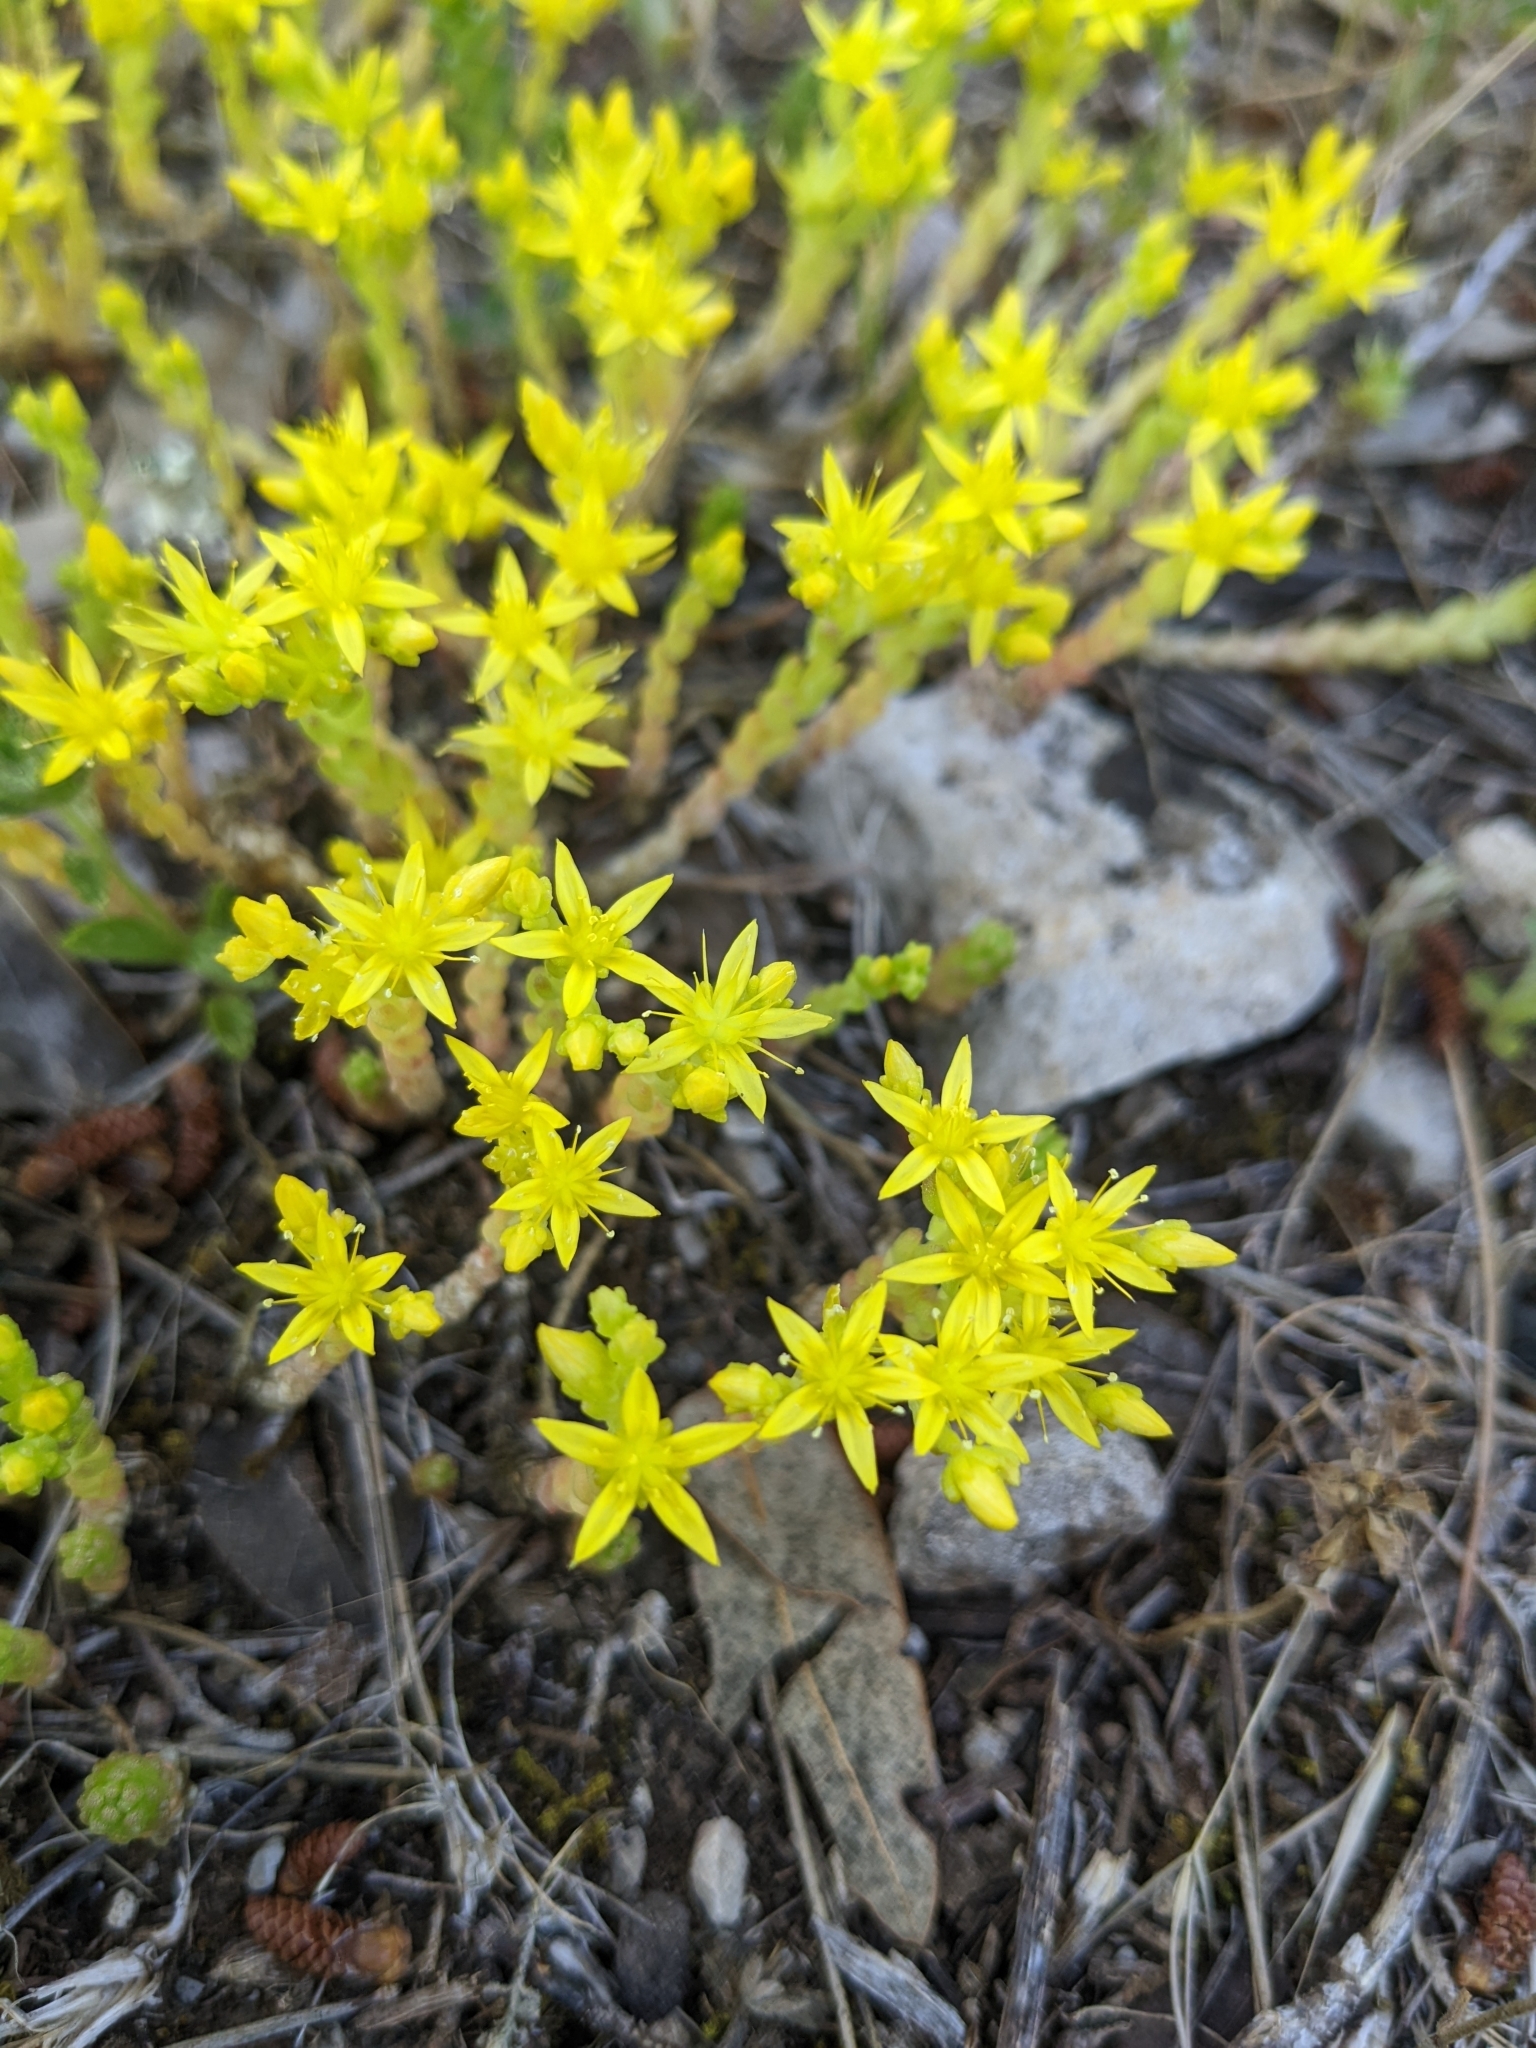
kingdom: Plantae
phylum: Tracheophyta
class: Magnoliopsida
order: Saxifragales
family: Crassulaceae
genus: Sedum
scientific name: Sedum acre
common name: Biting stonecrop
